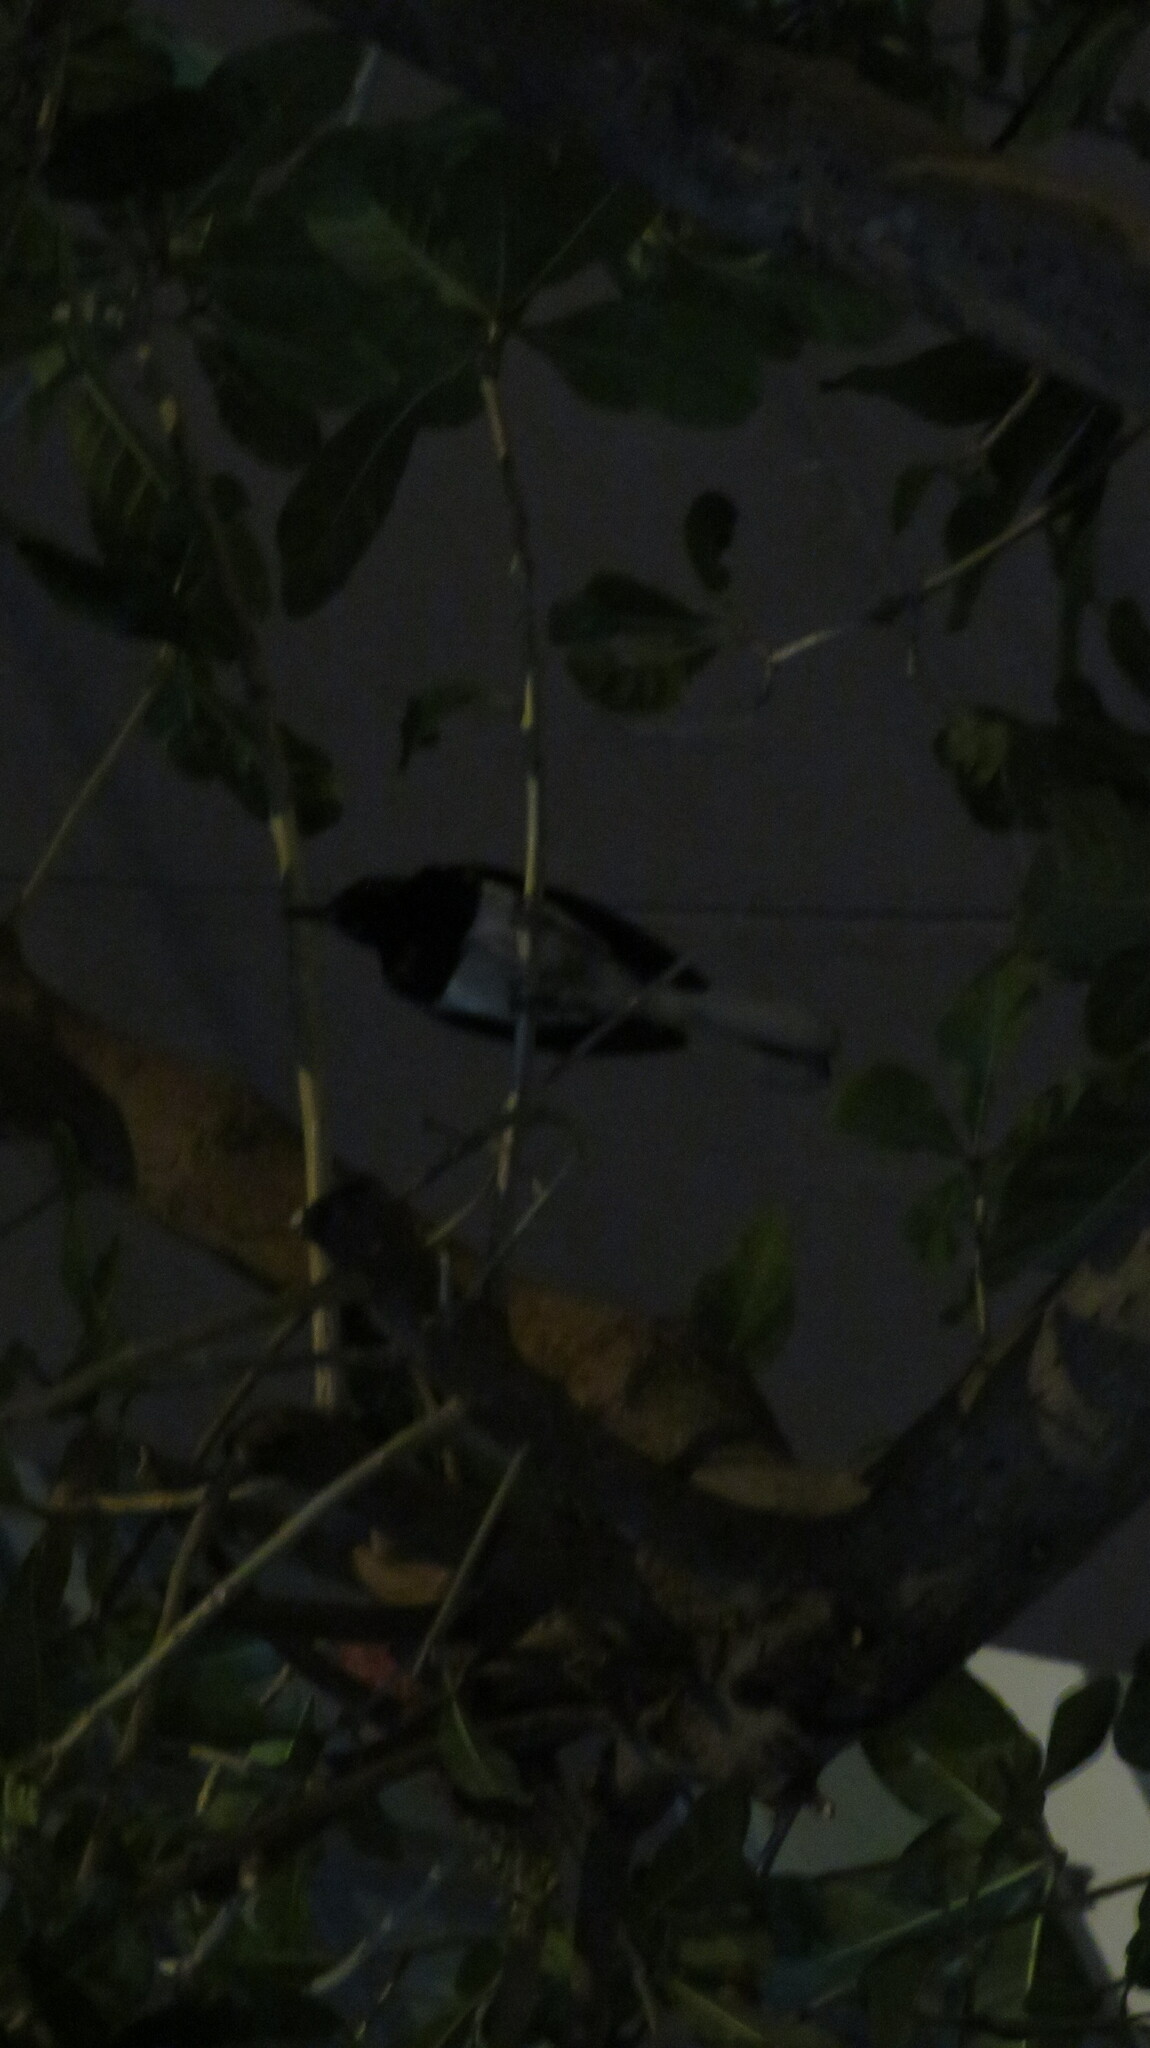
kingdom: Animalia
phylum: Chordata
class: Aves
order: Passeriformes
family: Muscicapidae
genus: Copsychus
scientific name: Copsychus saularis
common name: Oriental magpie-robin
